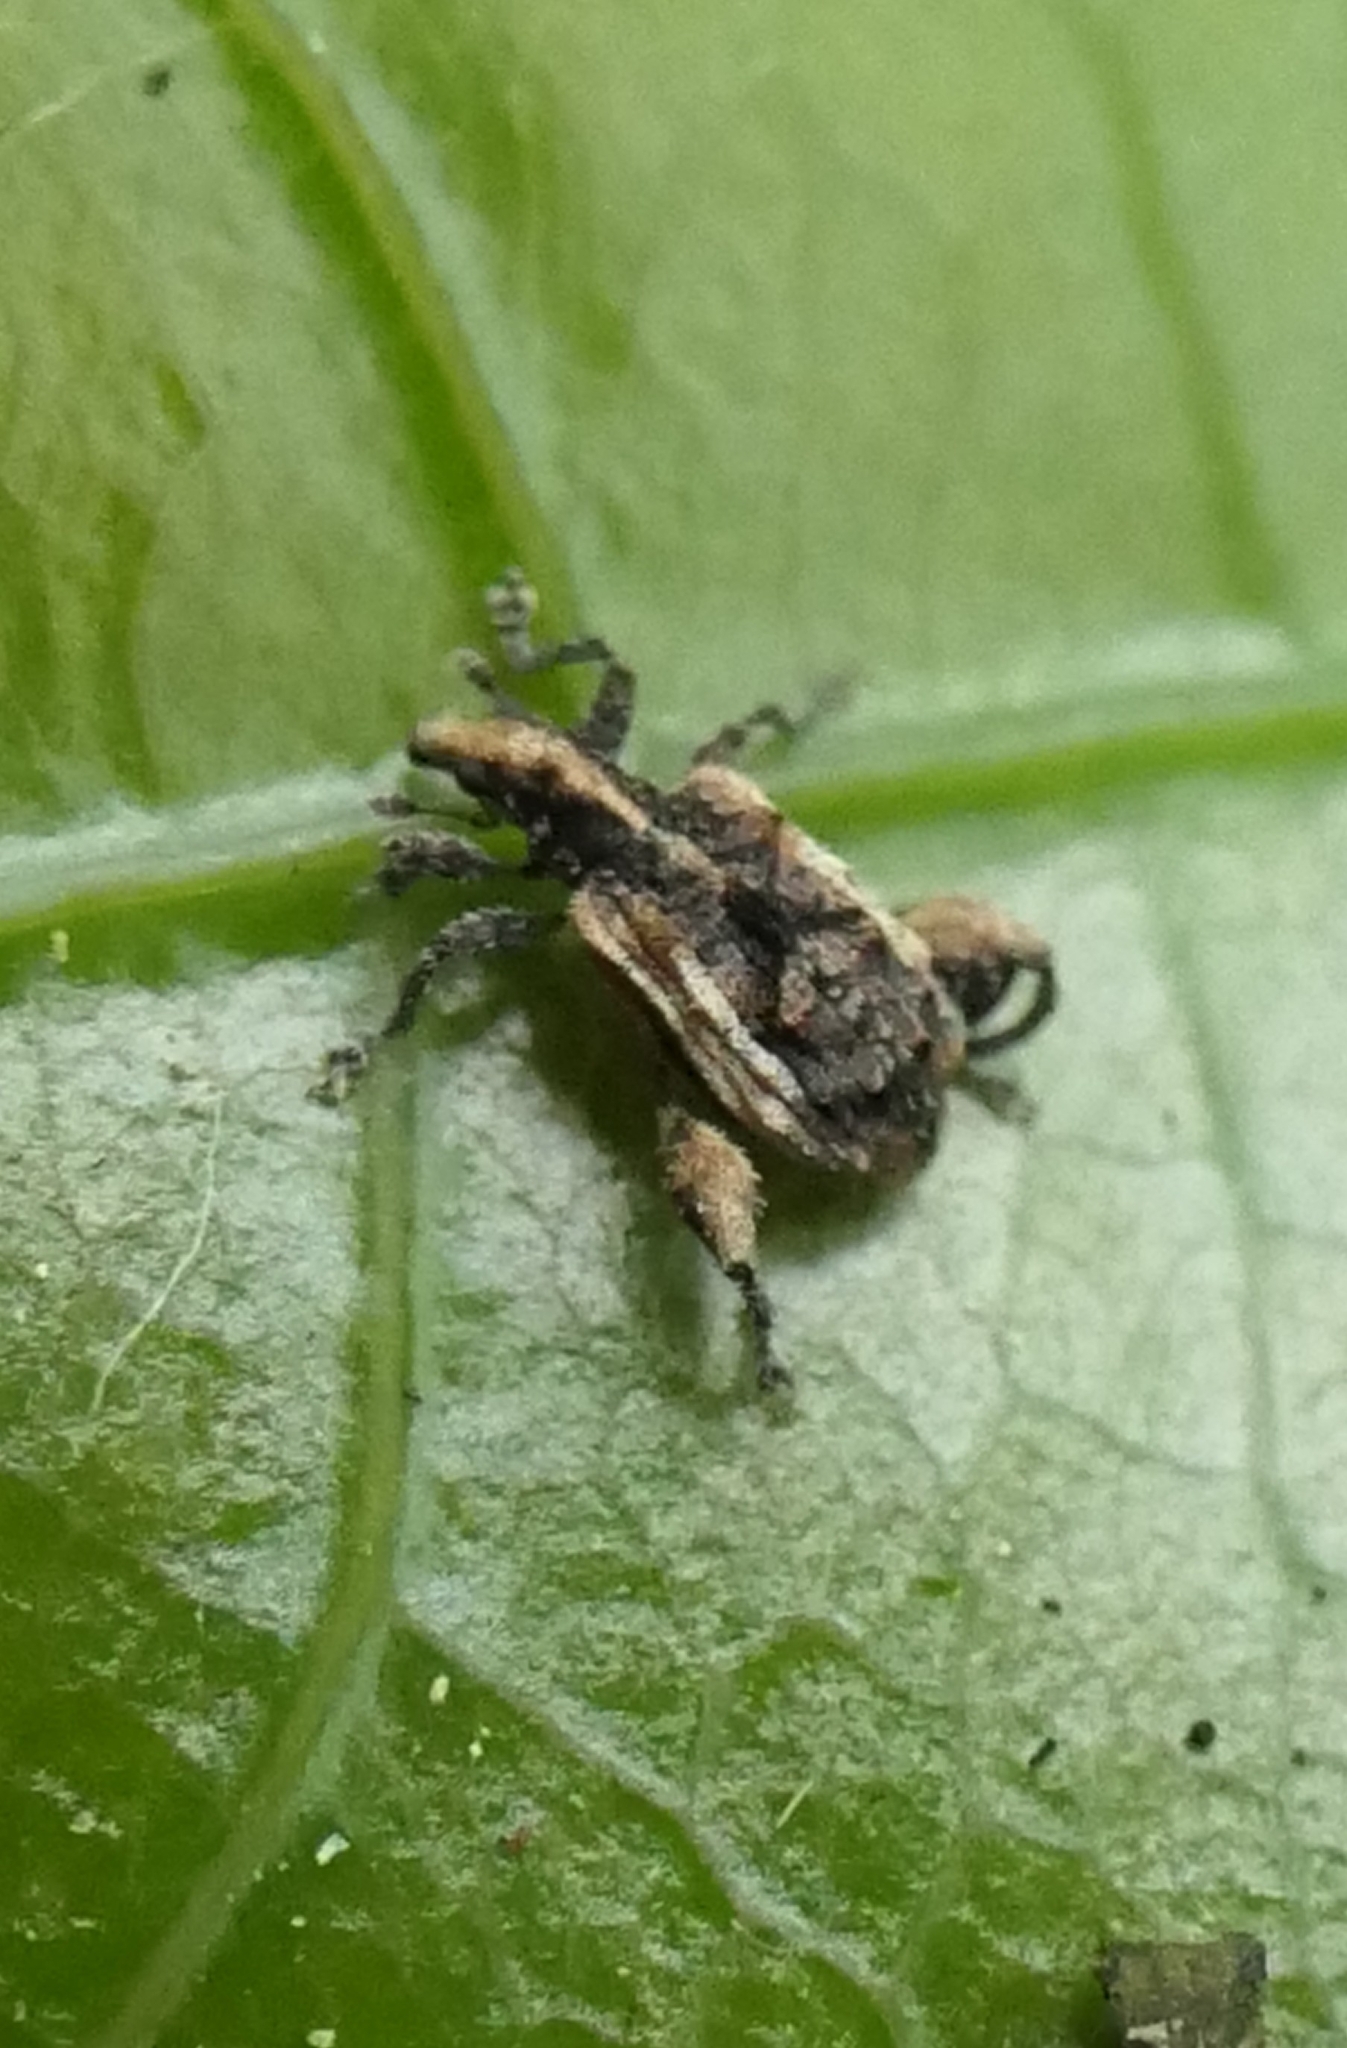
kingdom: Animalia
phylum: Arthropoda
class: Insecta
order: Coleoptera
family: Curculionidae
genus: Pactola
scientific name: Pactola variabilis
